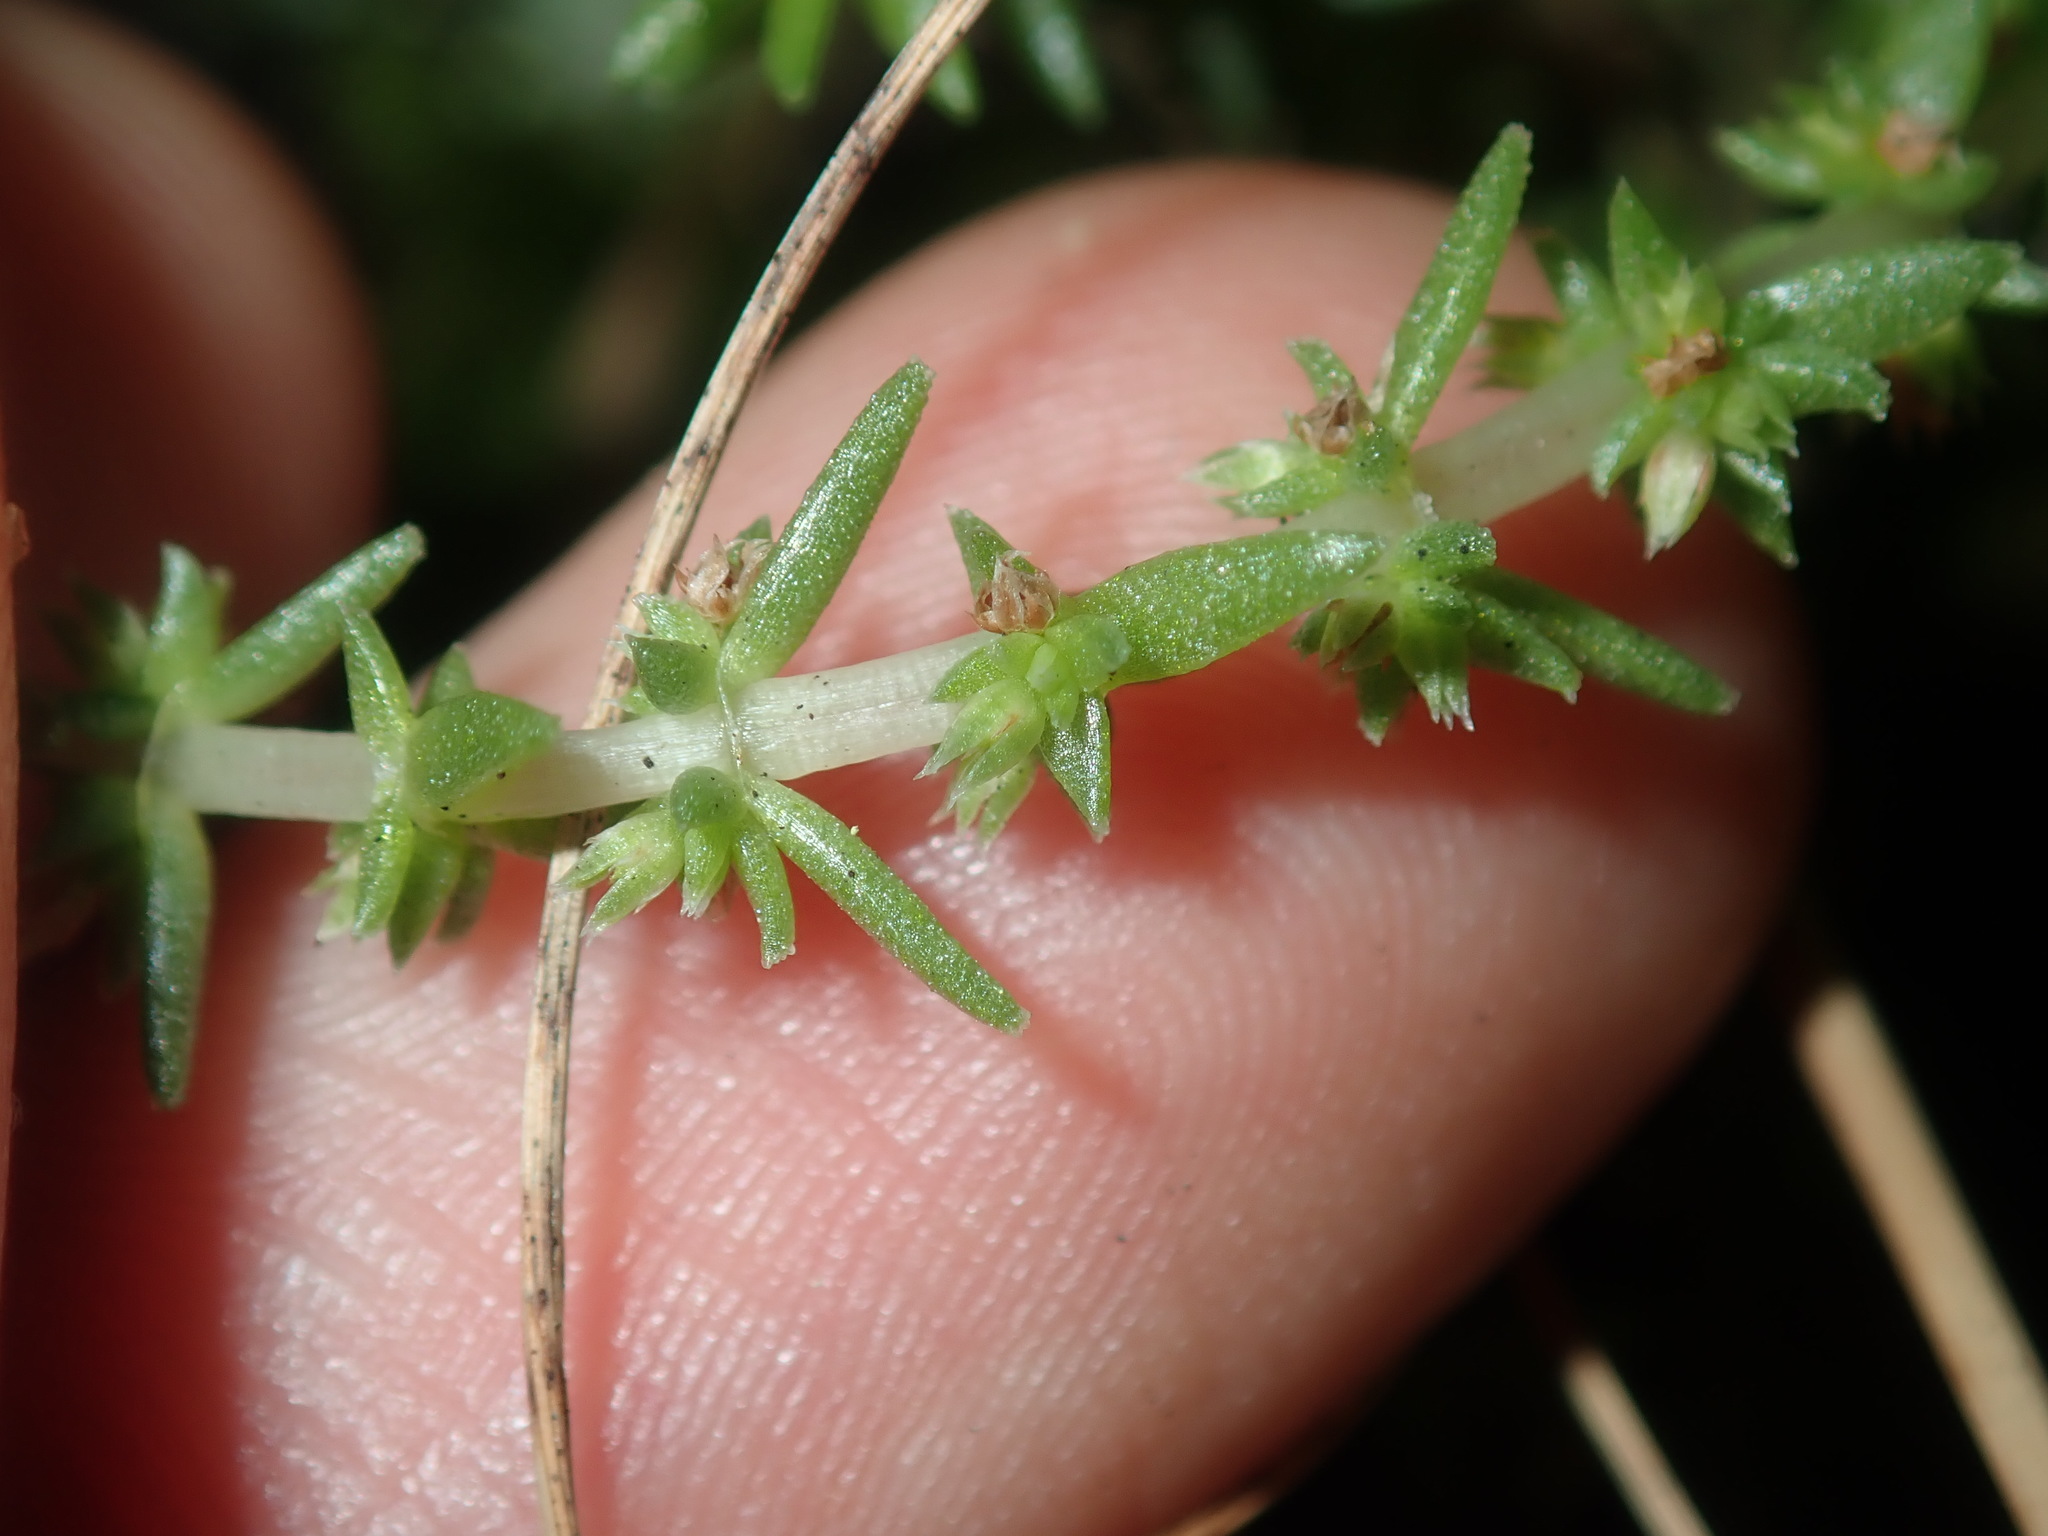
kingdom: Plantae
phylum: Tracheophyta
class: Magnoliopsida
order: Saxifragales
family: Crassulaceae
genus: Crassula
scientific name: Crassula sieberiana
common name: Siberian pygmyweed
